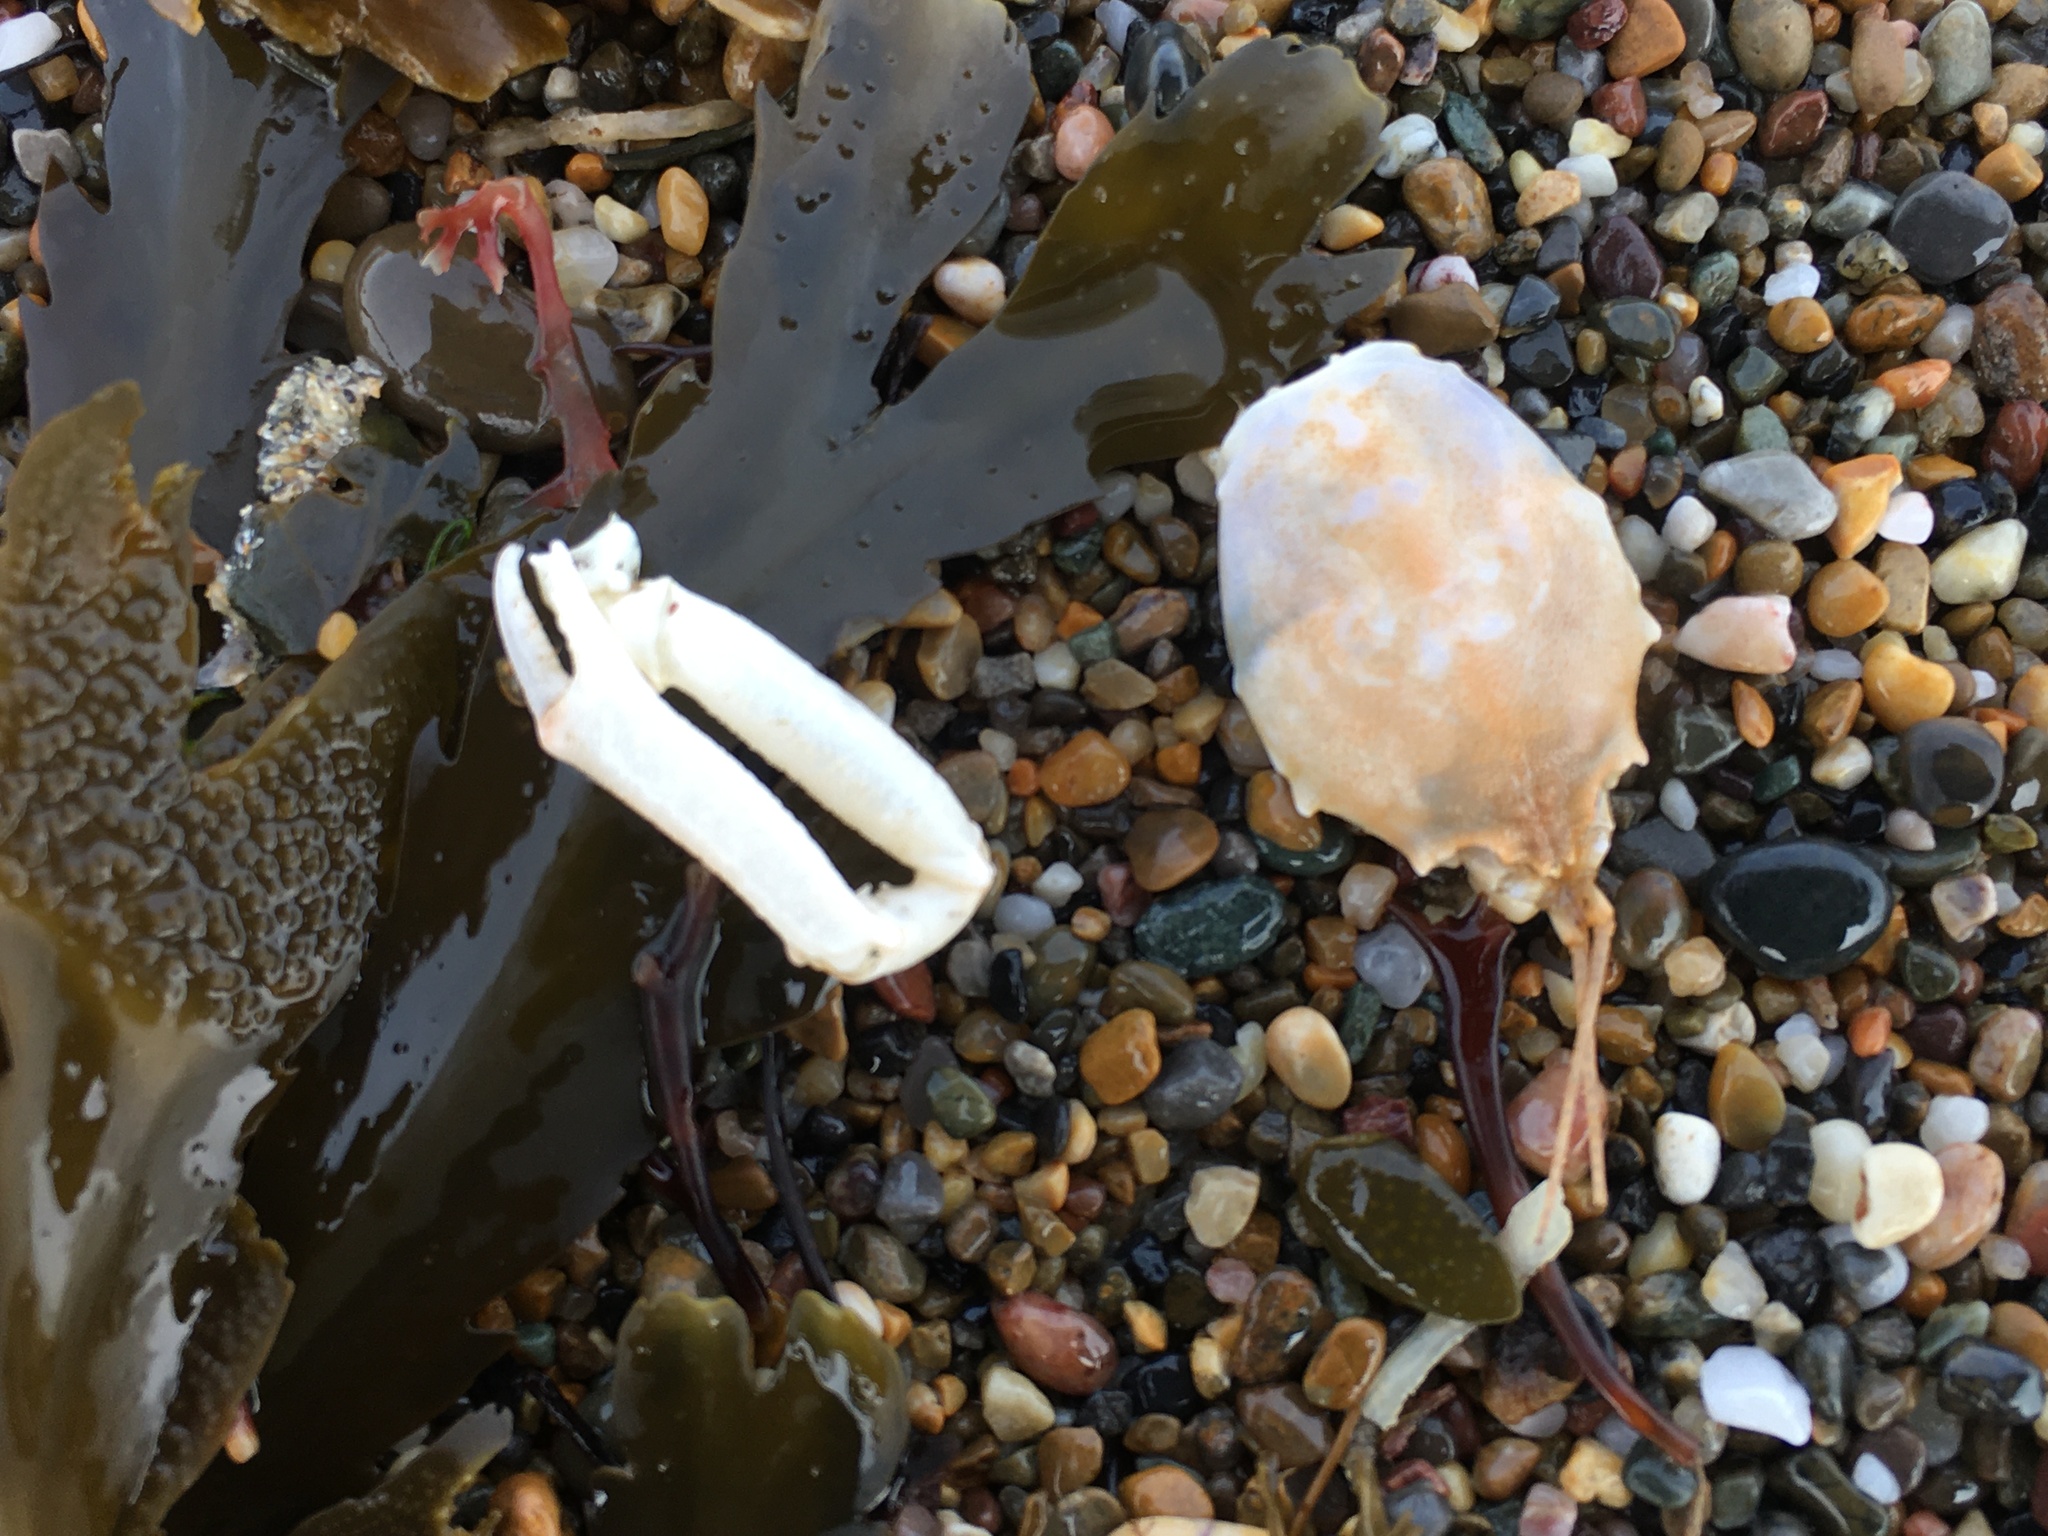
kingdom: Animalia
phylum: Arthropoda
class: Malacostraca
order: Decapoda
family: Corystidae
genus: Corystes
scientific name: Corystes cassivelaunus
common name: Masked crab
